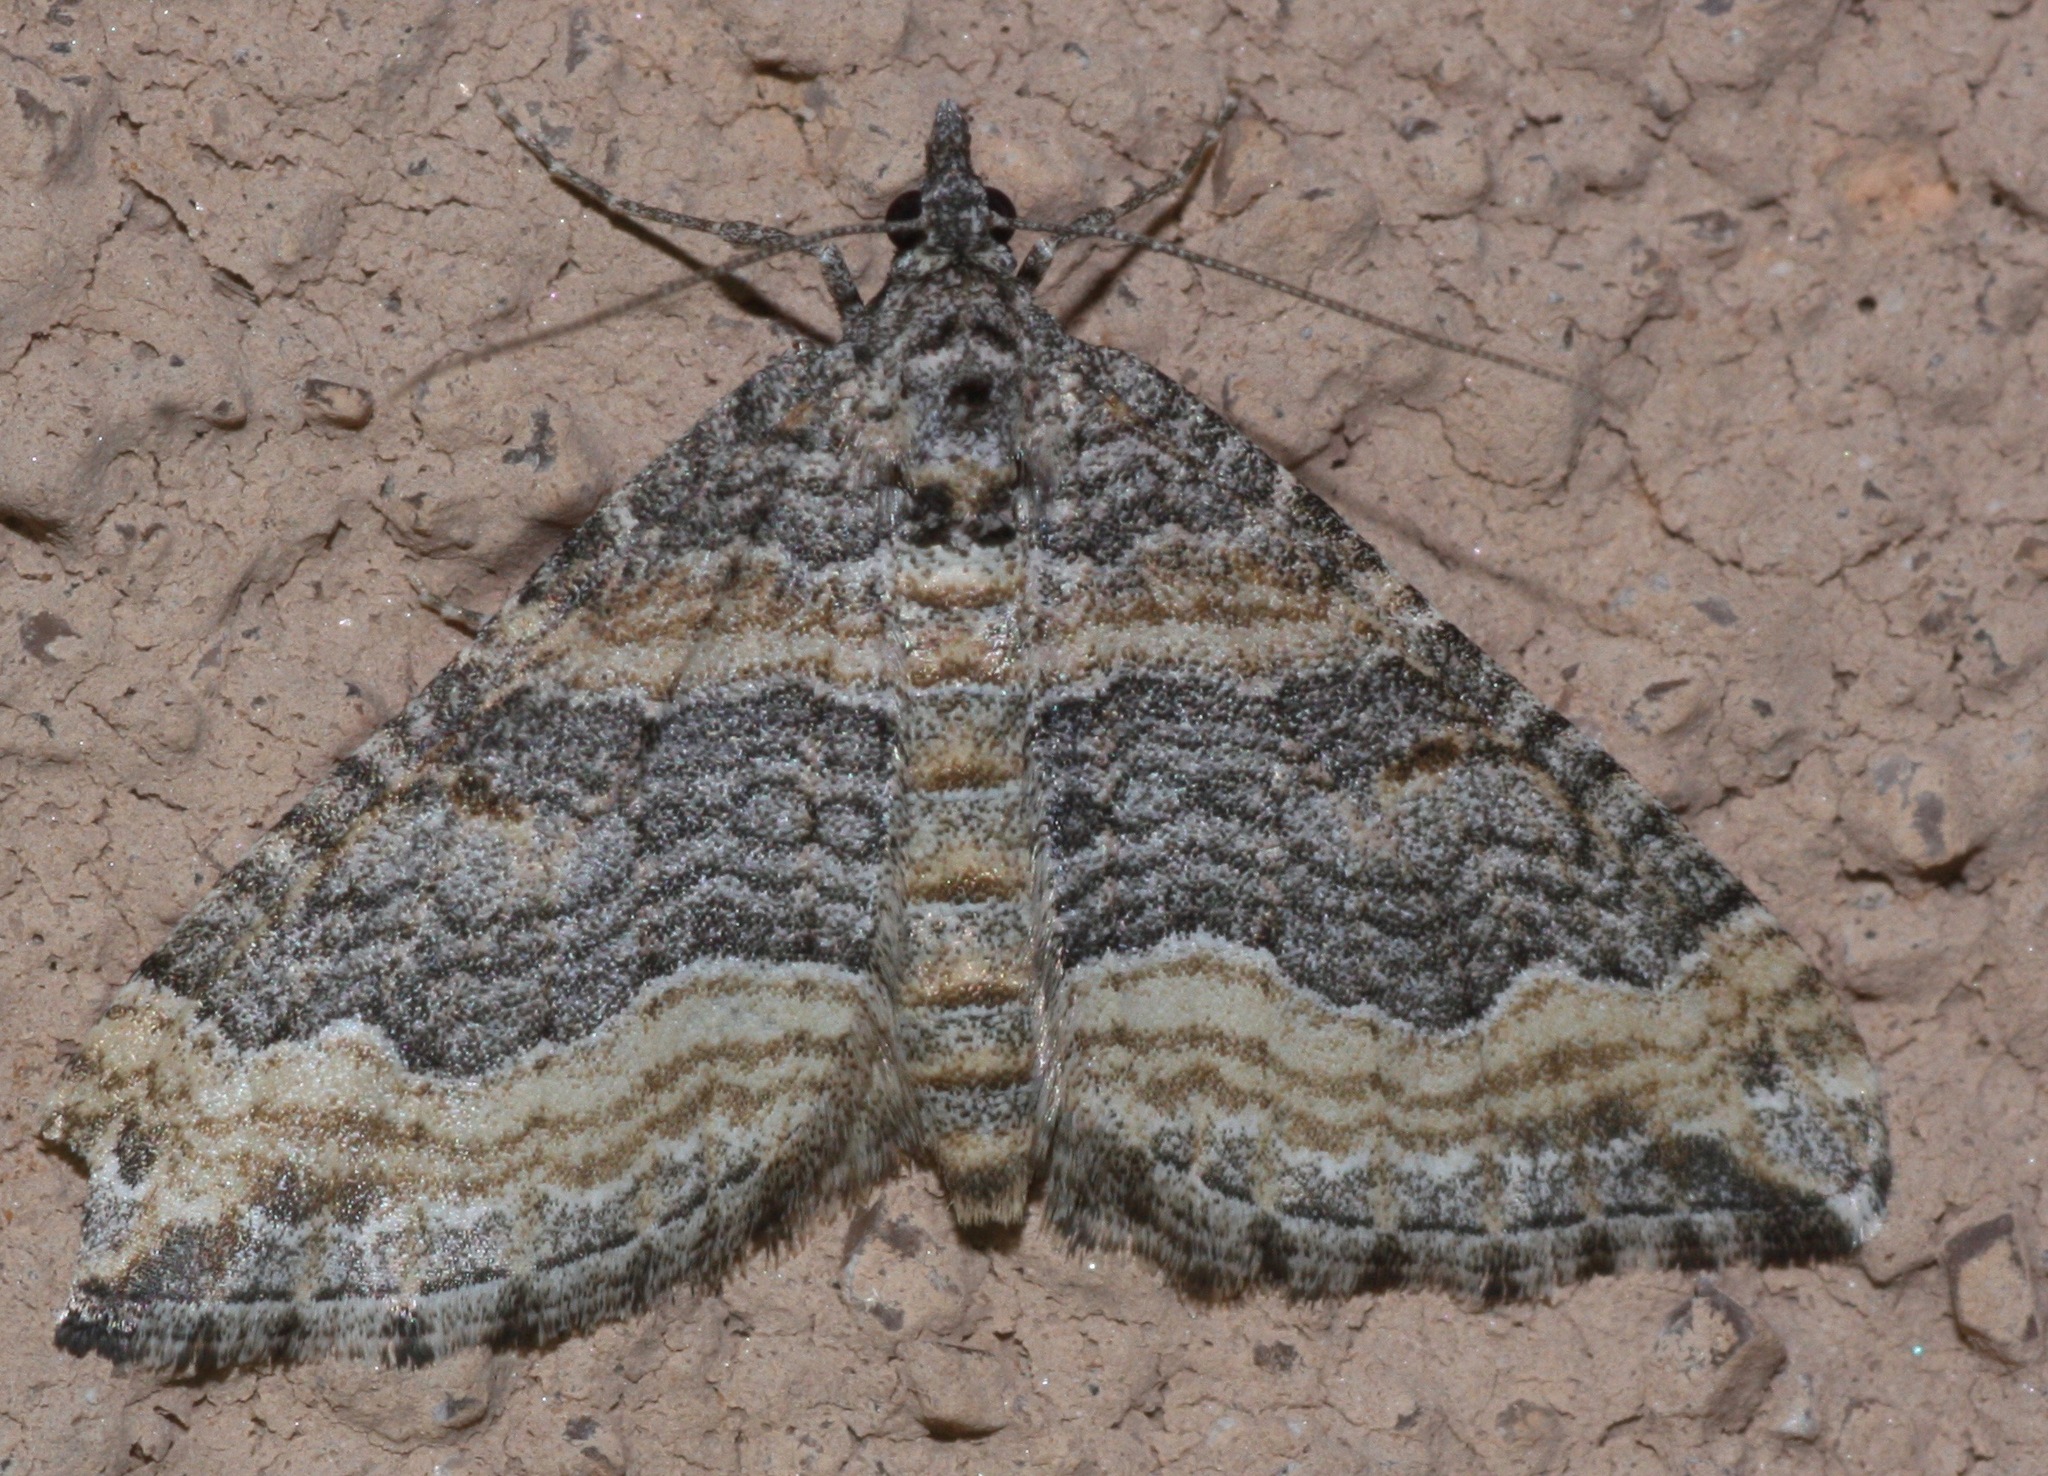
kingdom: Animalia
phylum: Arthropoda
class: Insecta
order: Lepidoptera
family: Geometridae
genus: Perizoma
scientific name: Perizoma custodiata
